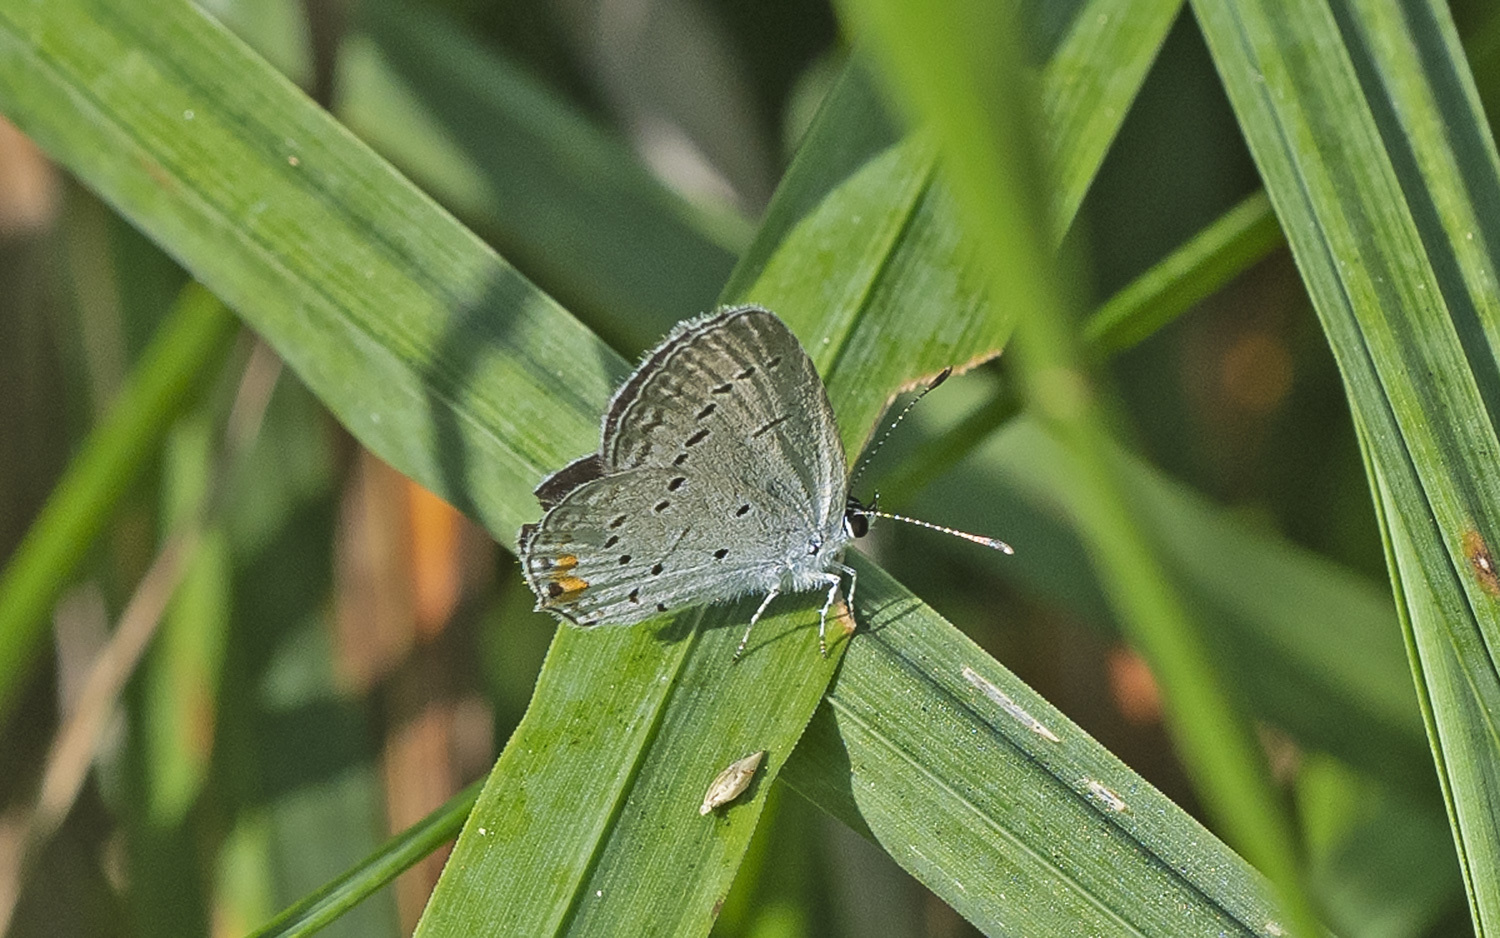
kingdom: Animalia
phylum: Arthropoda
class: Insecta
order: Lepidoptera
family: Lycaenidae
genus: Elkalyce
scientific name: Elkalyce comyntas
